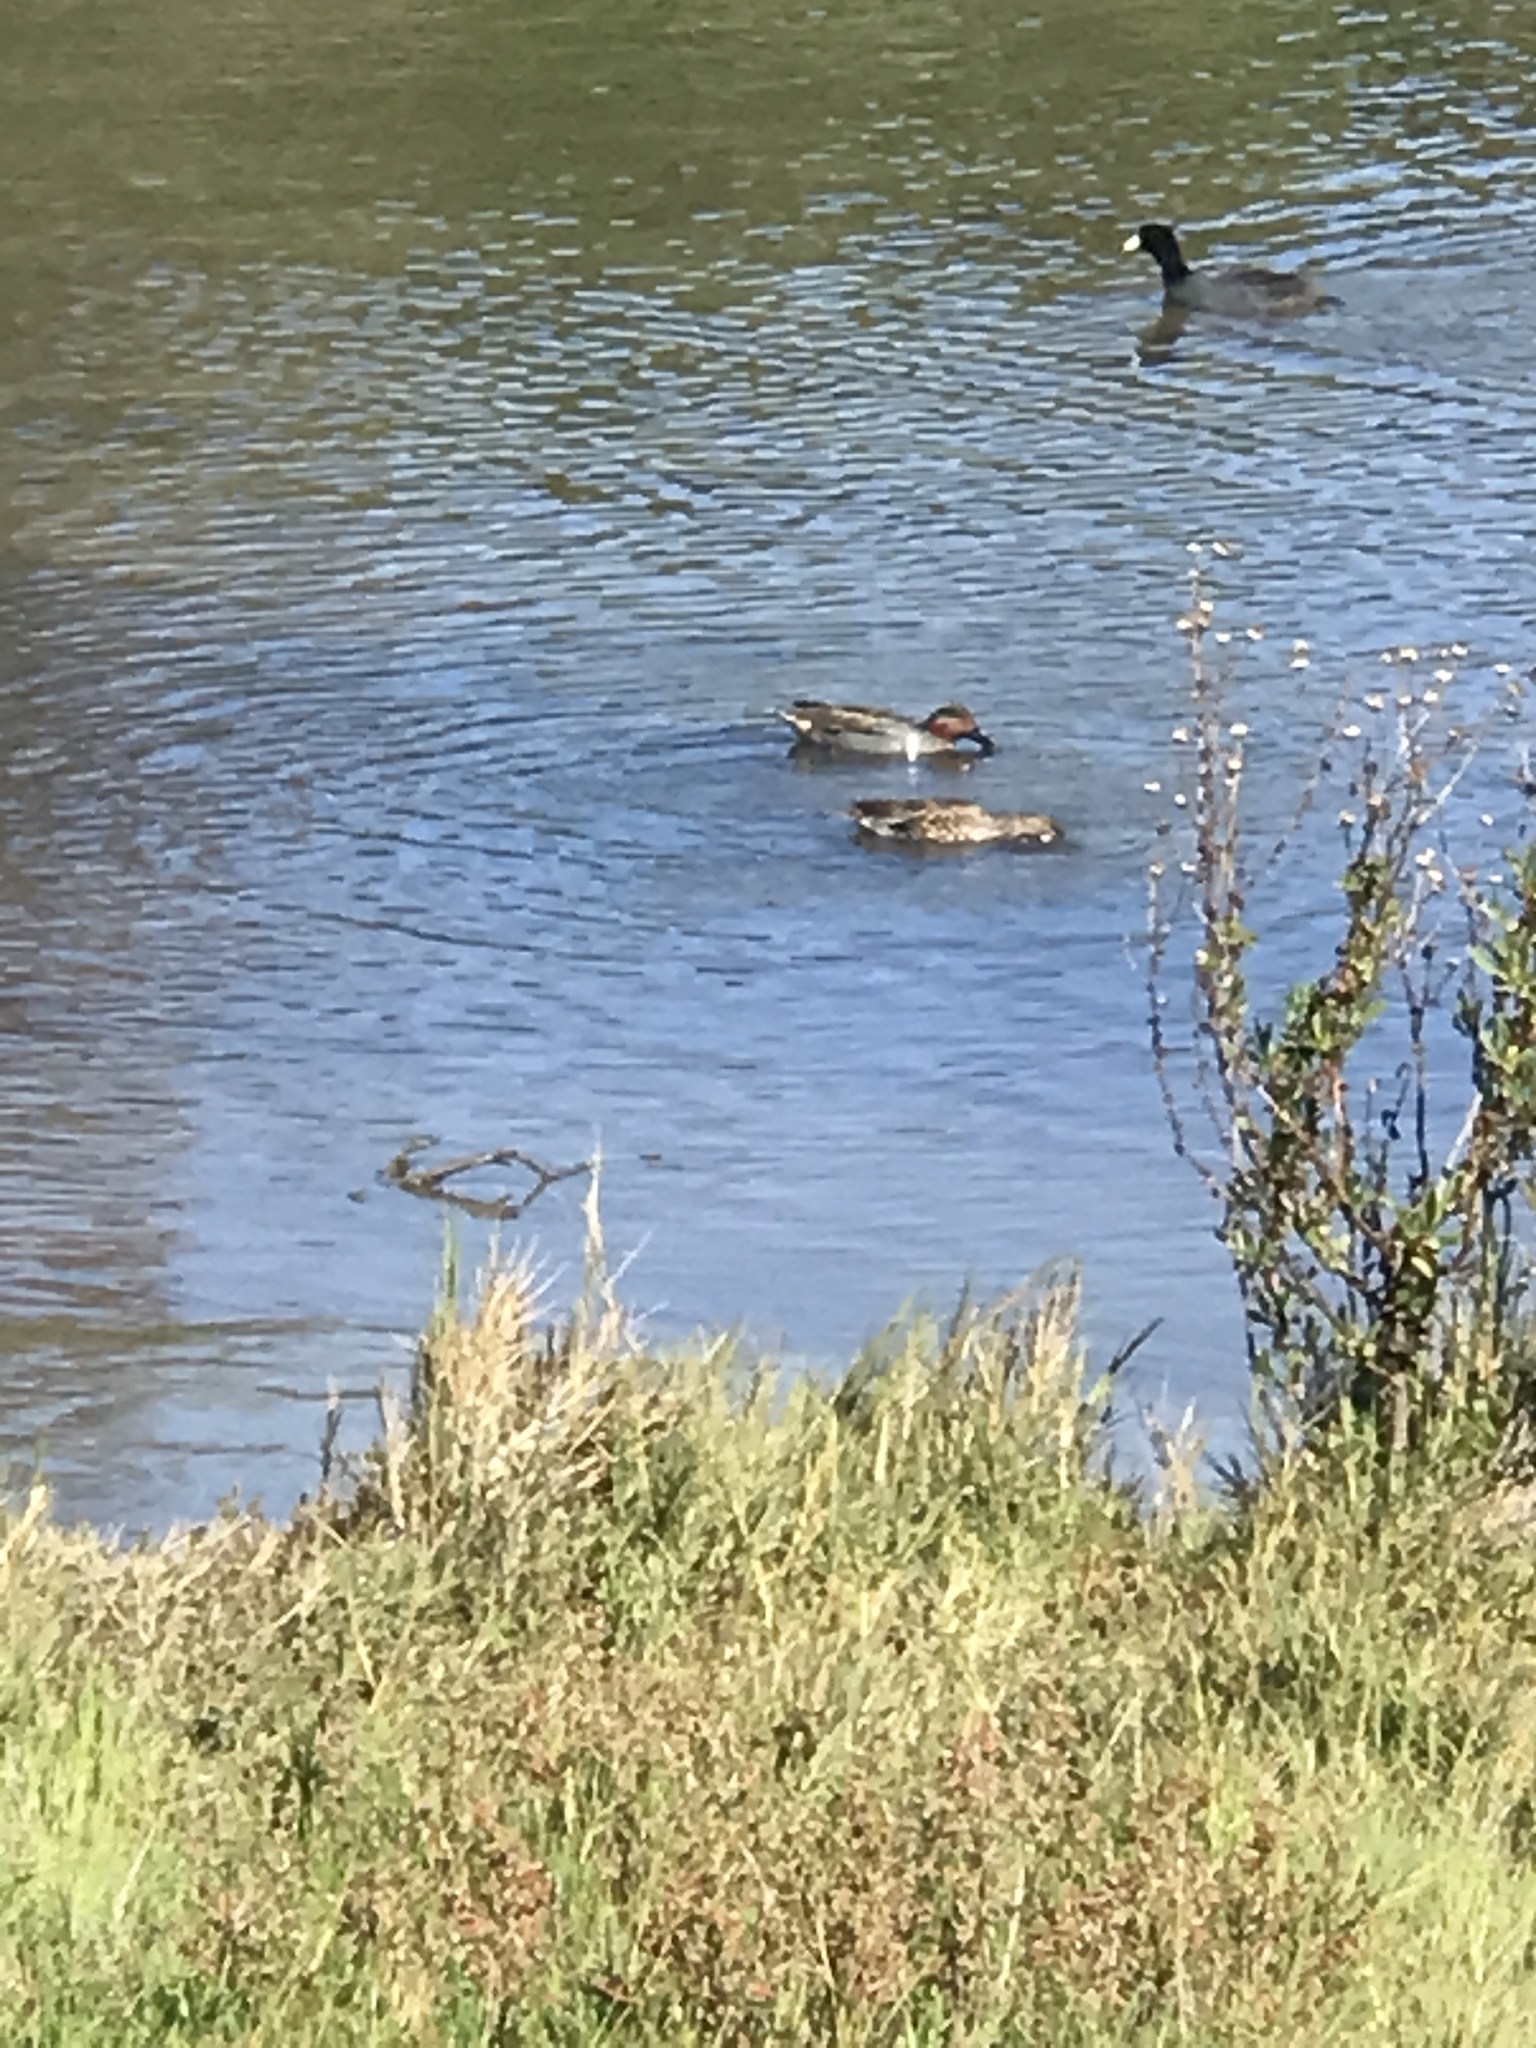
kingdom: Animalia
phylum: Chordata
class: Aves
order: Anseriformes
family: Anatidae
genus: Anas
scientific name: Anas crecca
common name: Eurasian teal
